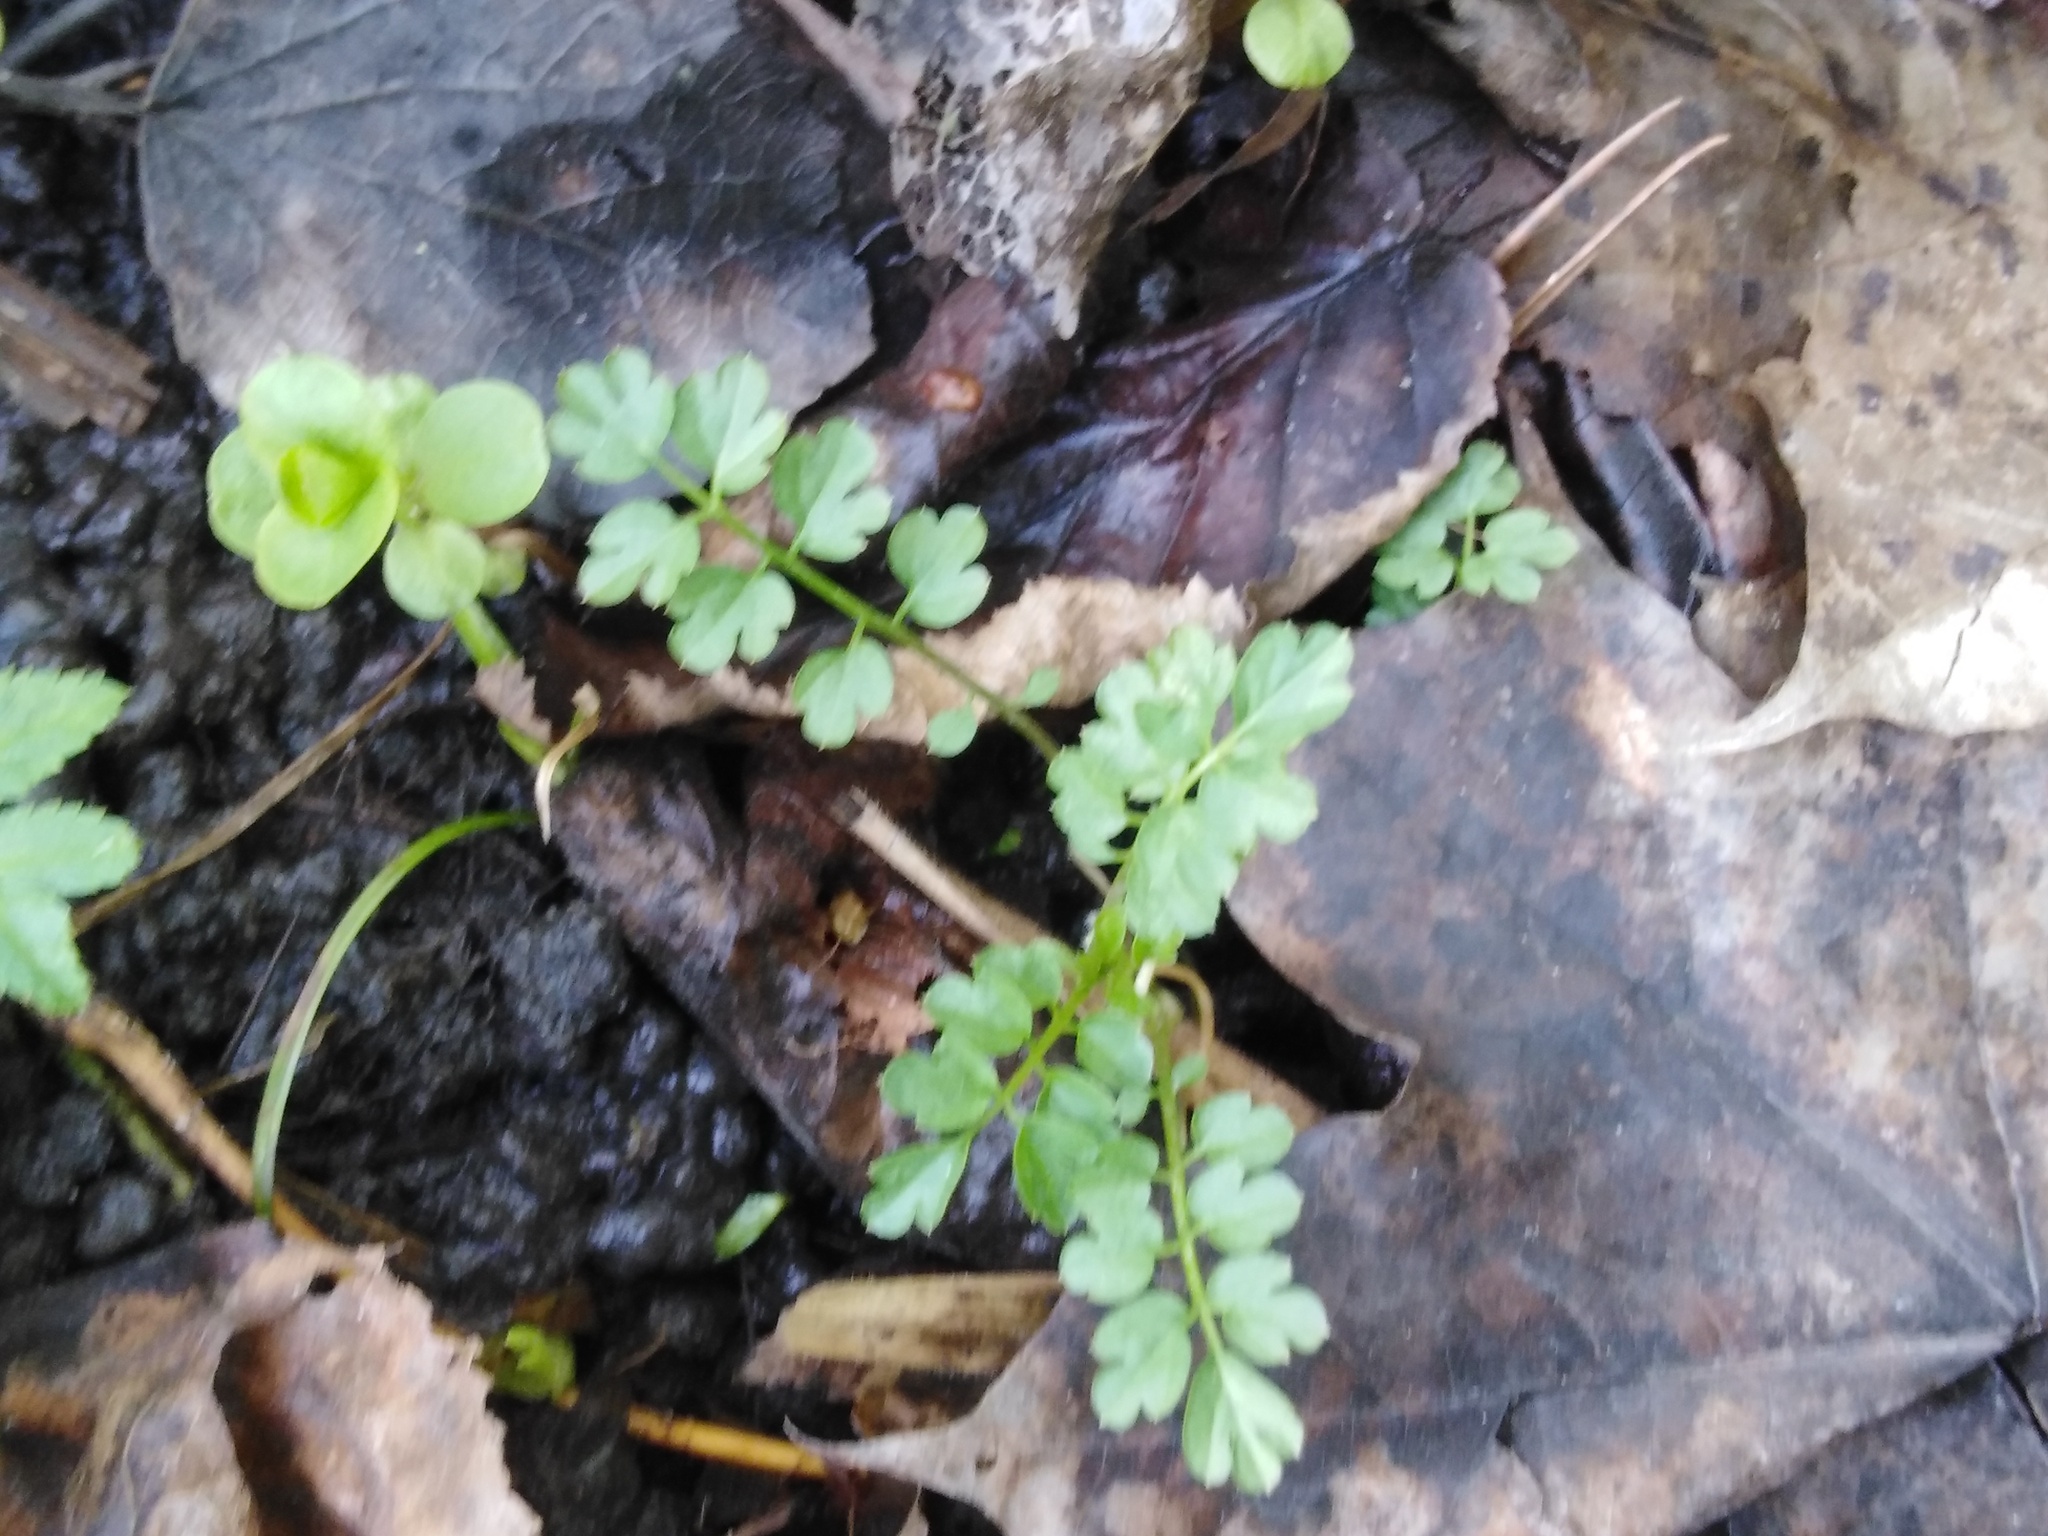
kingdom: Plantae
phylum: Tracheophyta
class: Magnoliopsida
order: Brassicales
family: Brassicaceae
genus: Cardamine
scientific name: Cardamine impatiens
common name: Narrow-leaved bitter-cress
